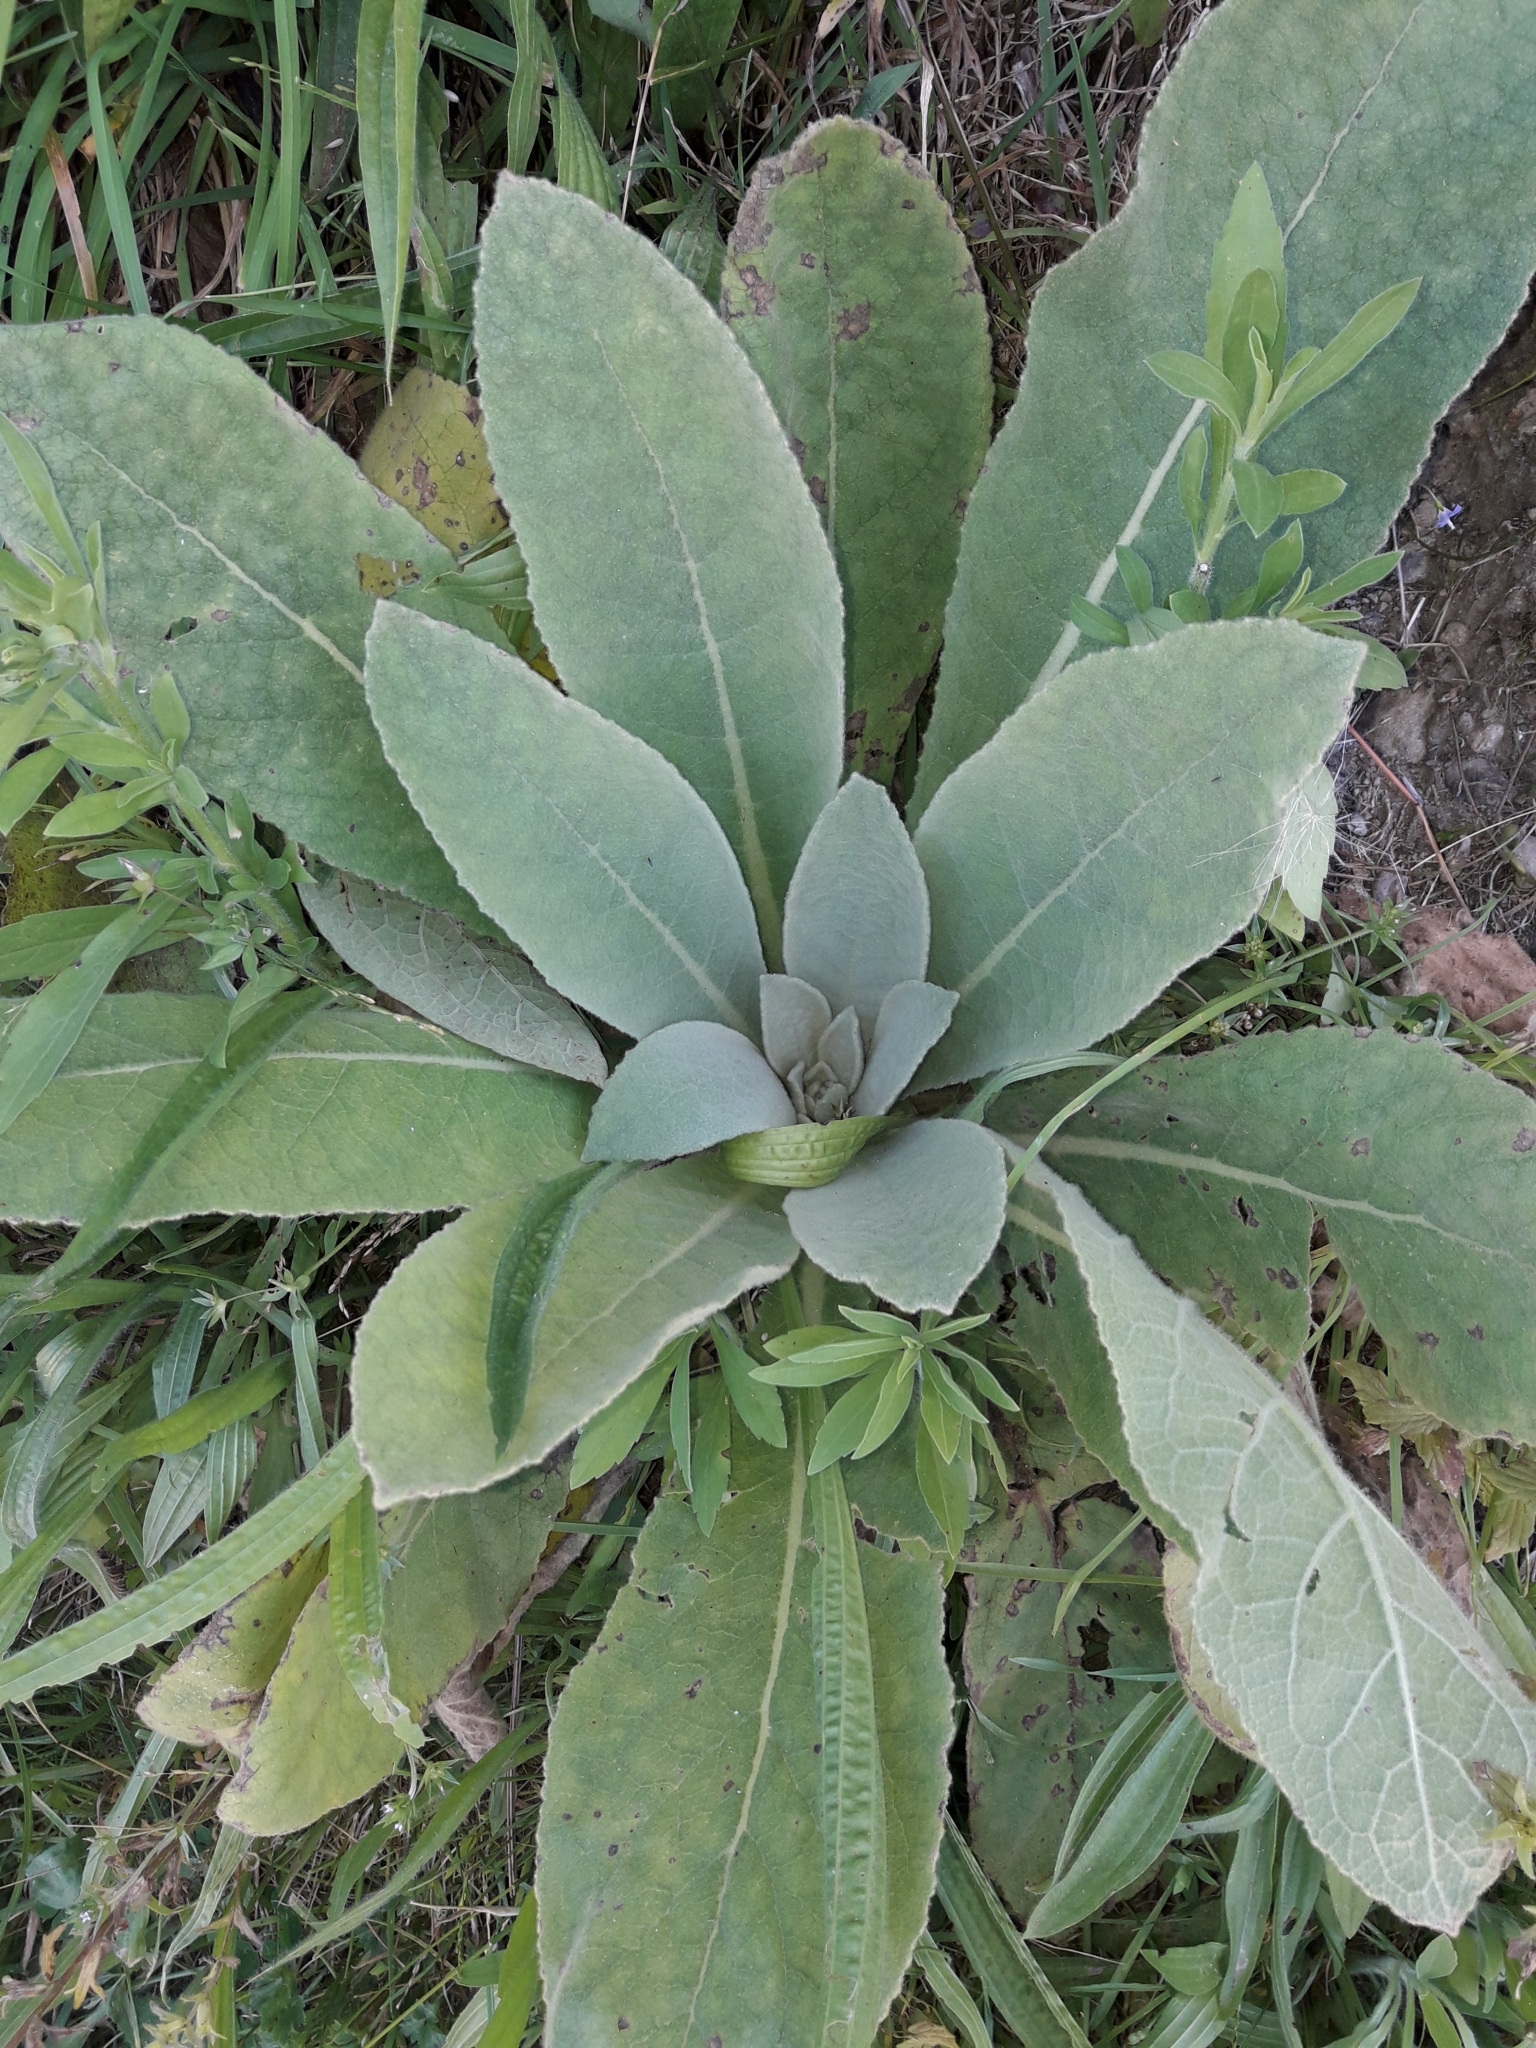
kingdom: Plantae
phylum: Tracheophyta
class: Magnoliopsida
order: Lamiales
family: Scrophulariaceae
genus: Verbascum
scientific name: Verbascum thapsus
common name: Common mullein
